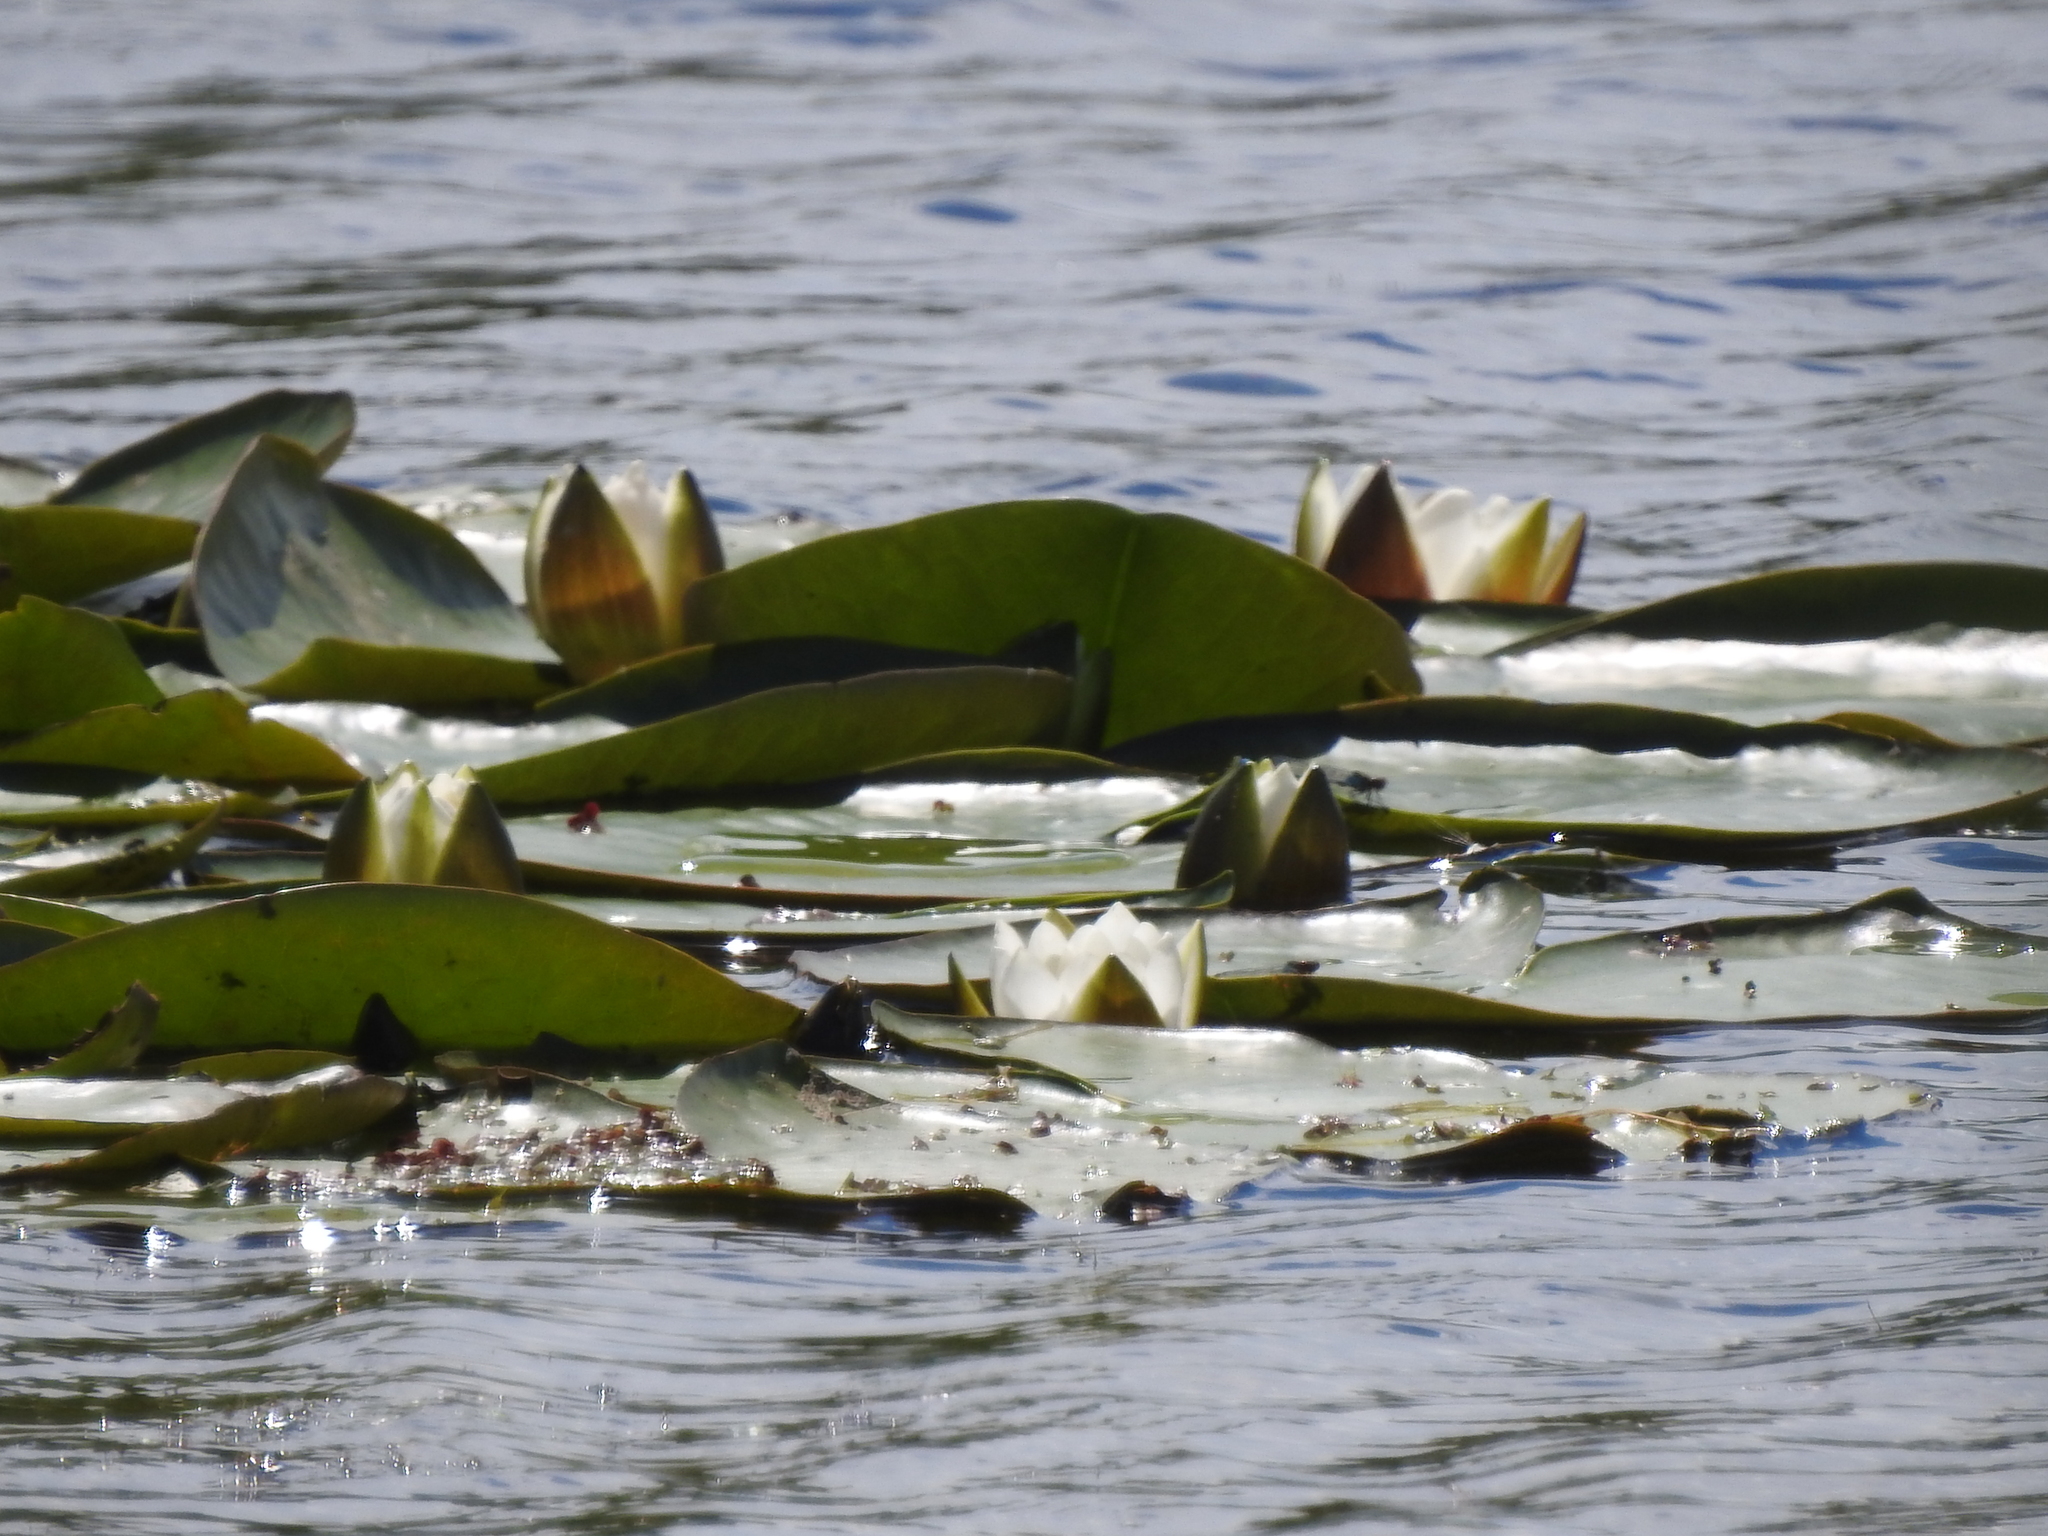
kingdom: Plantae
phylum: Tracheophyta
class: Magnoliopsida
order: Nymphaeales
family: Nymphaeaceae
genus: Nymphaea
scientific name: Nymphaea candida
